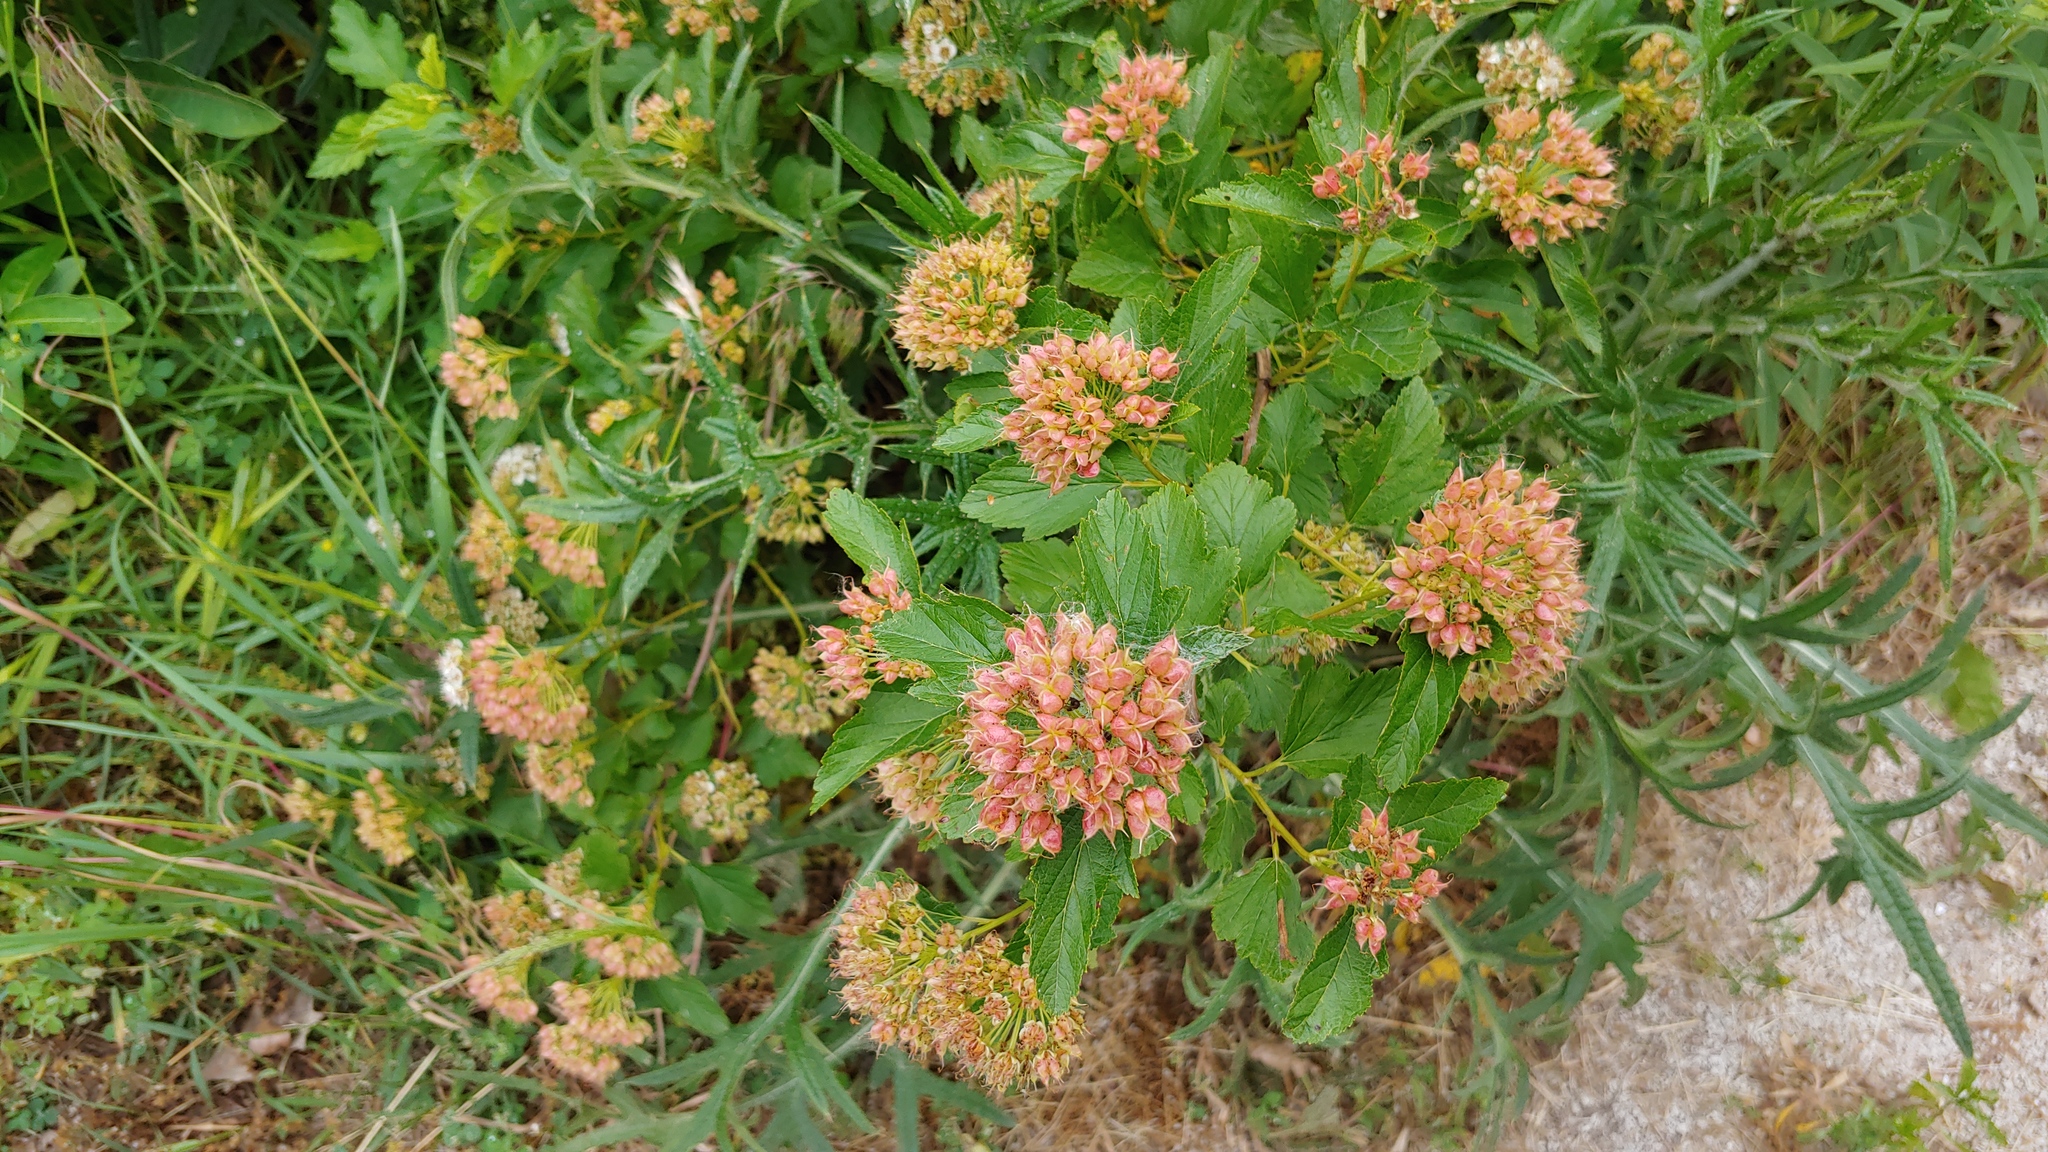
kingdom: Plantae
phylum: Tracheophyta
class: Magnoliopsida
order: Rosales
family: Rosaceae
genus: Physocarpus
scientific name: Physocarpus opulifolius
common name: Ninebark
